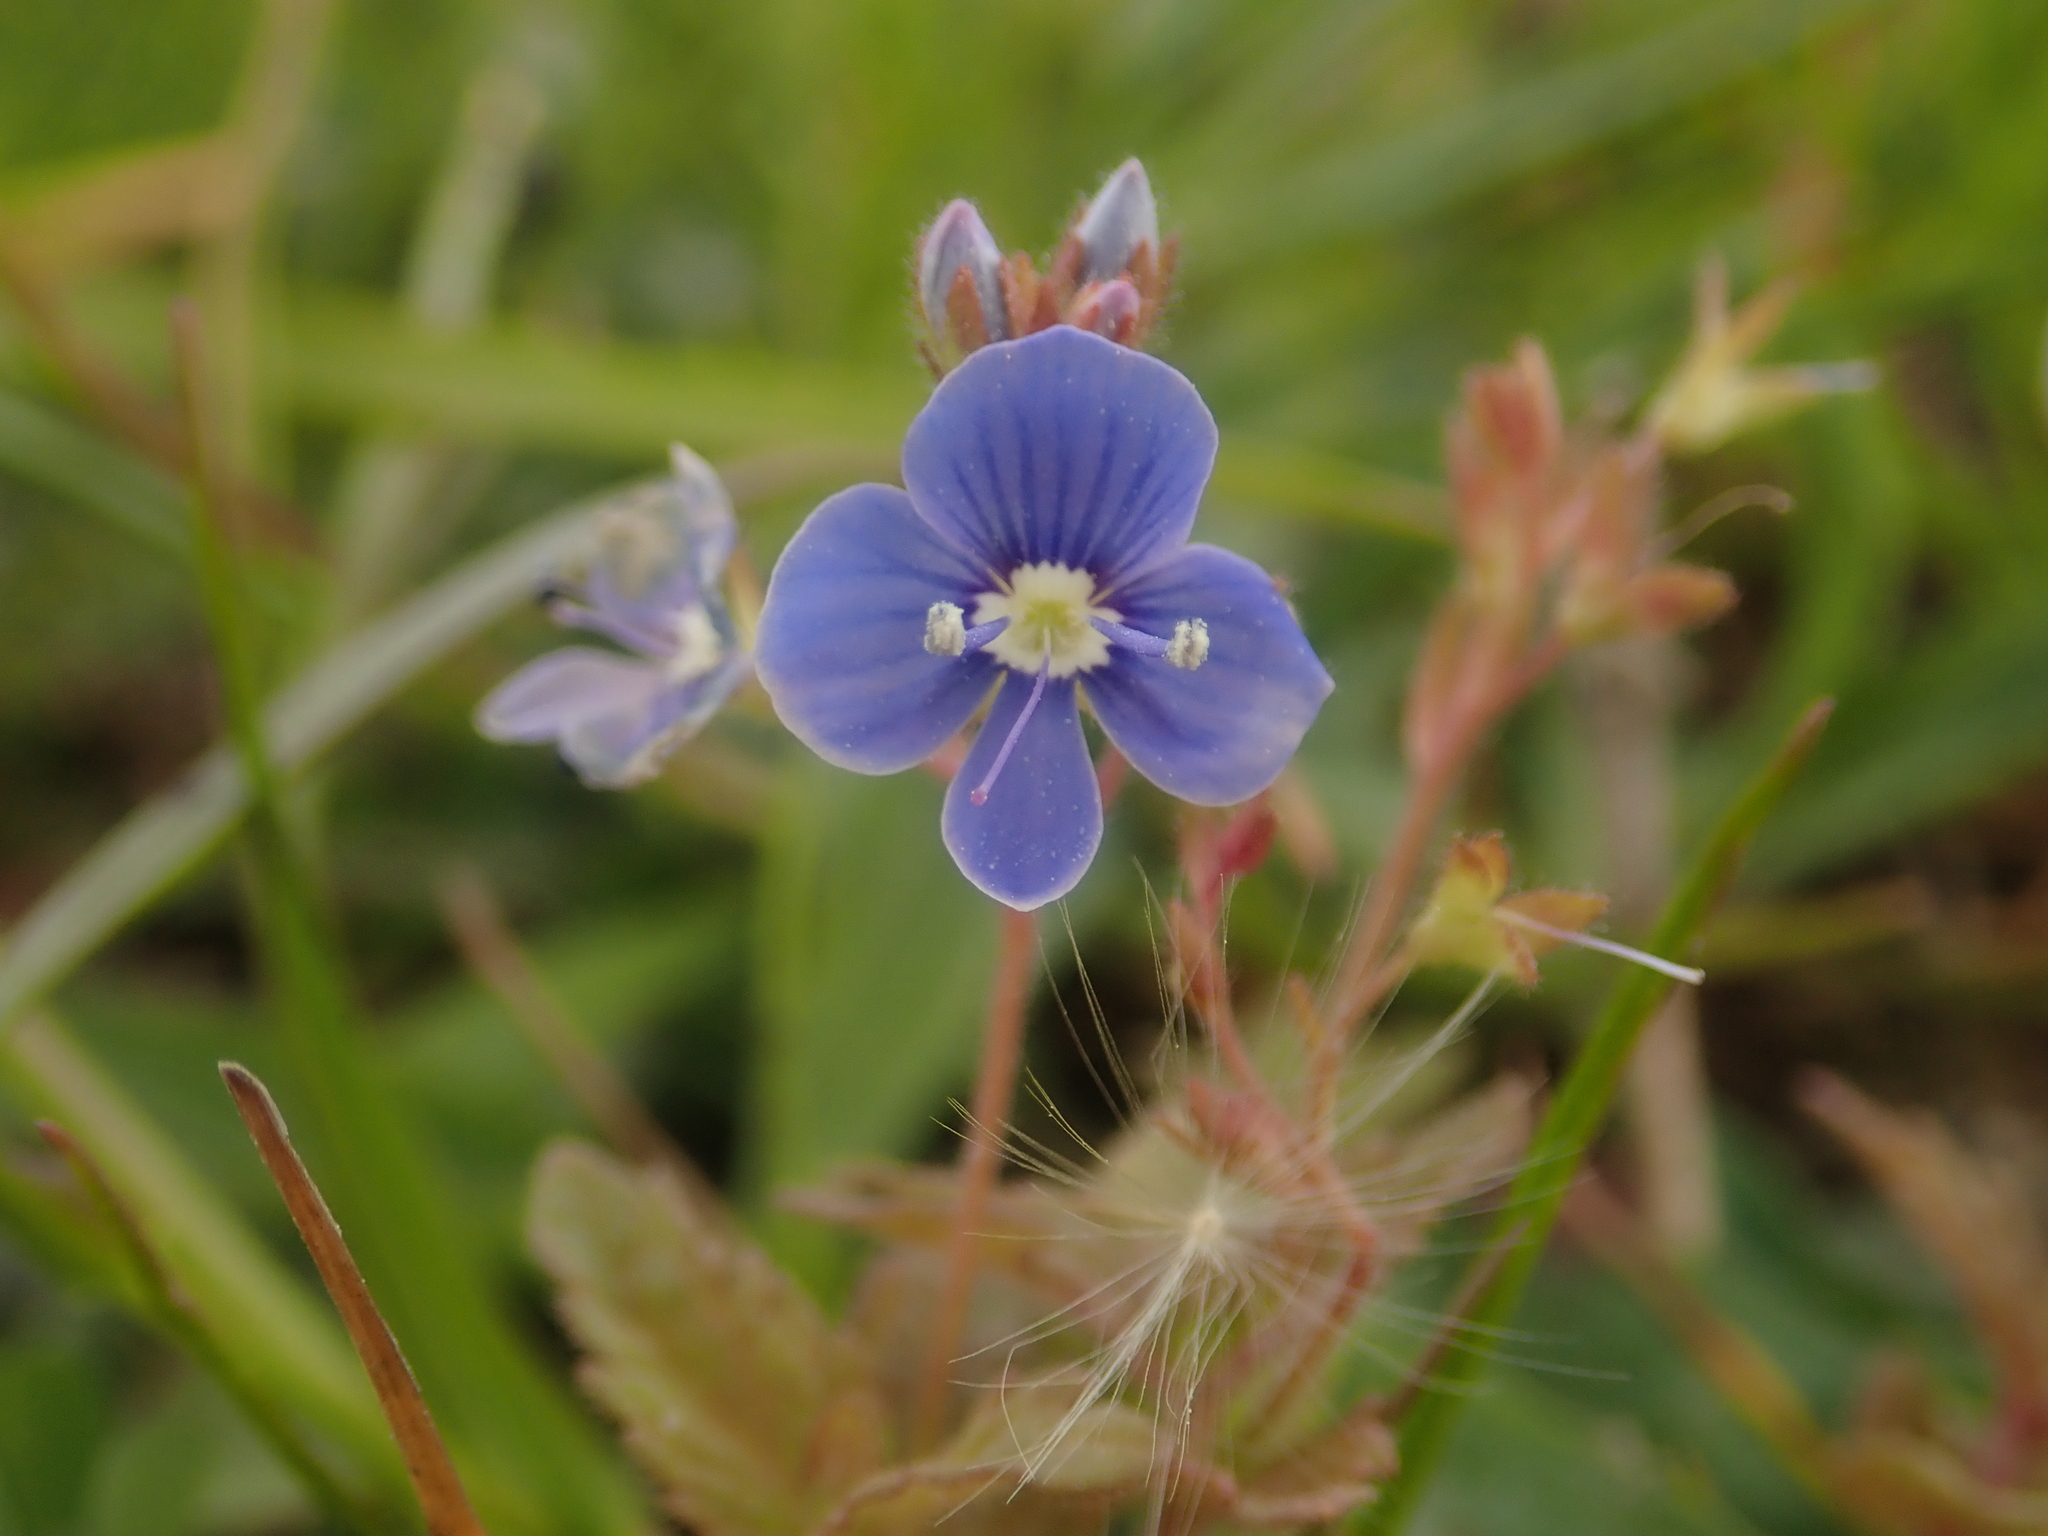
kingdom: Plantae
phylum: Tracheophyta
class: Magnoliopsida
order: Lamiales
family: Plantaginaceae
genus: Veronica
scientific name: Veronica chamaedrys
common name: Germander speedwell
